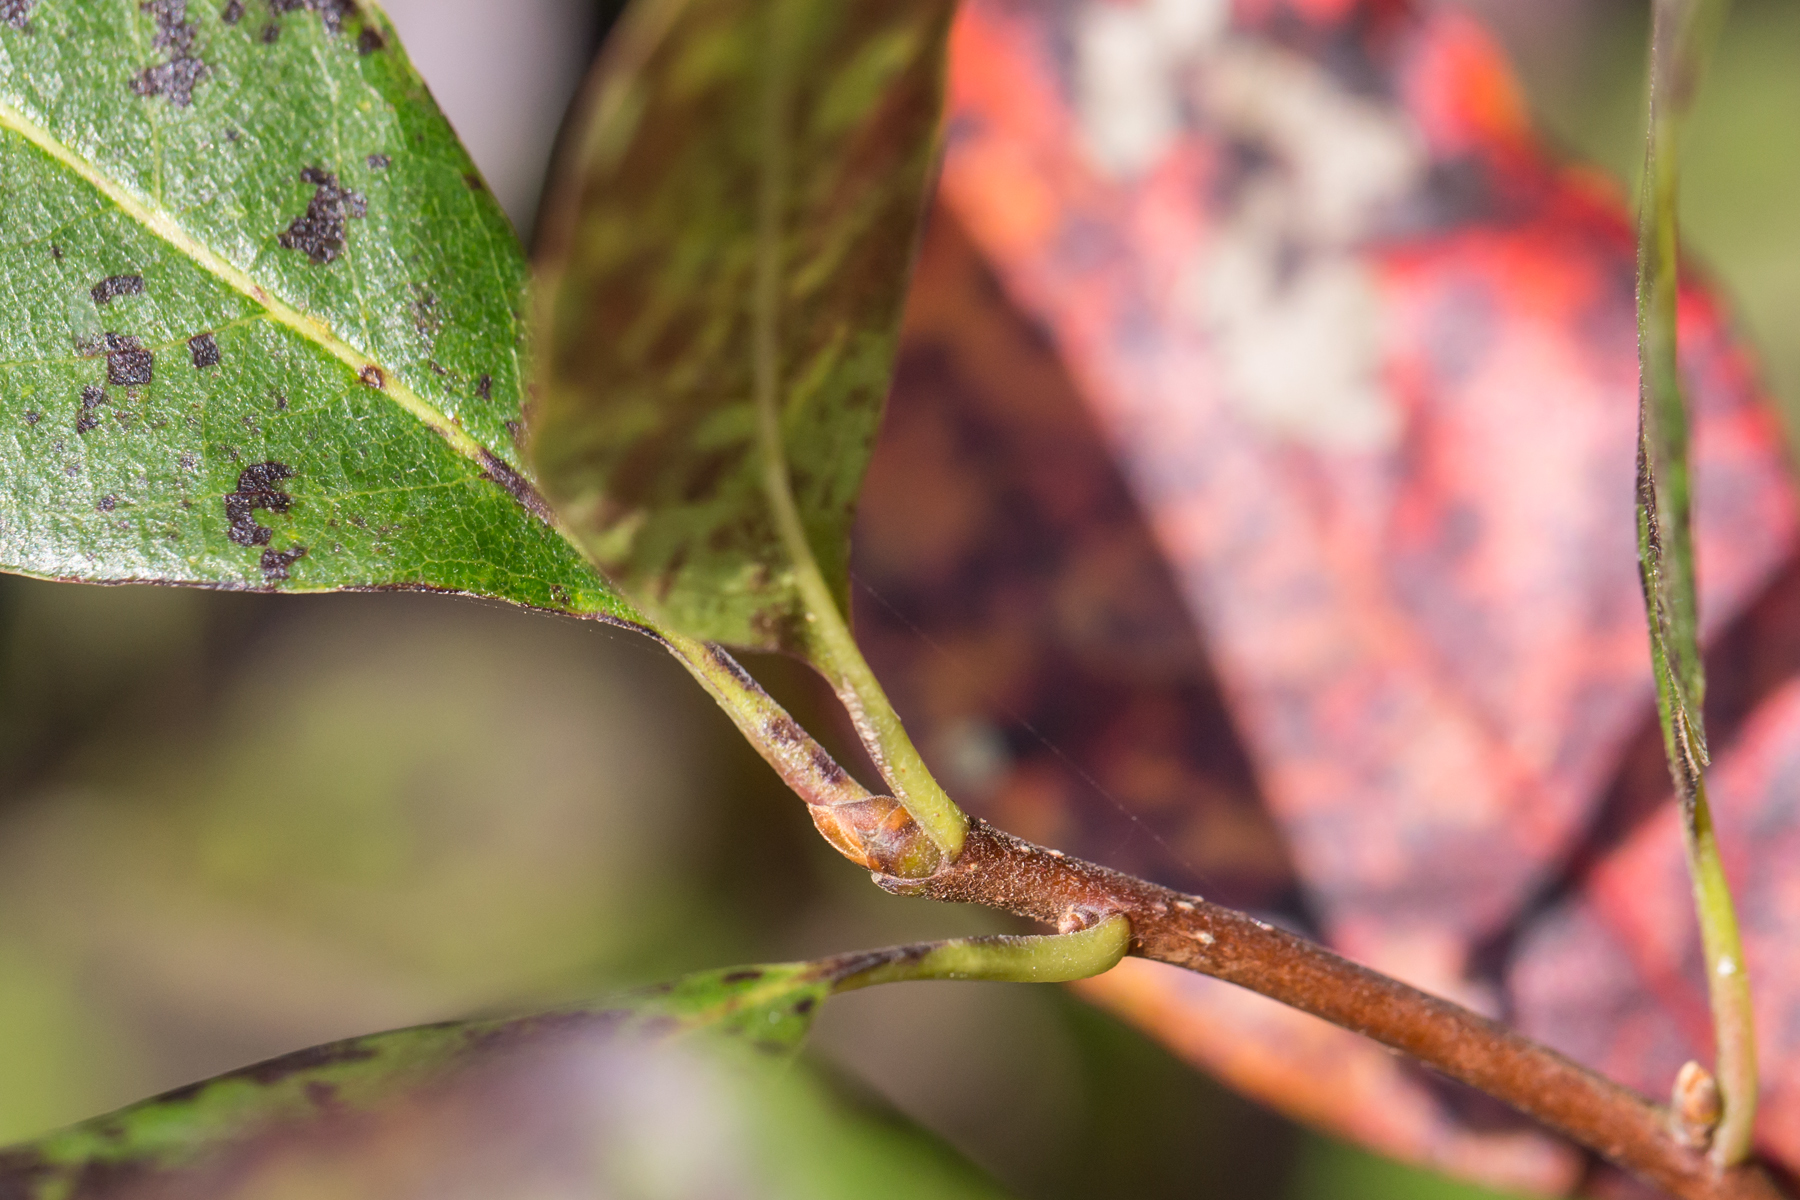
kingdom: Plantae
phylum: Tracheophyta
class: Magnoliopsida
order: Cornales
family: Nyssaceae
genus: Nyssa
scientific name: Nyssa sylvatica
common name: Black tupelo
